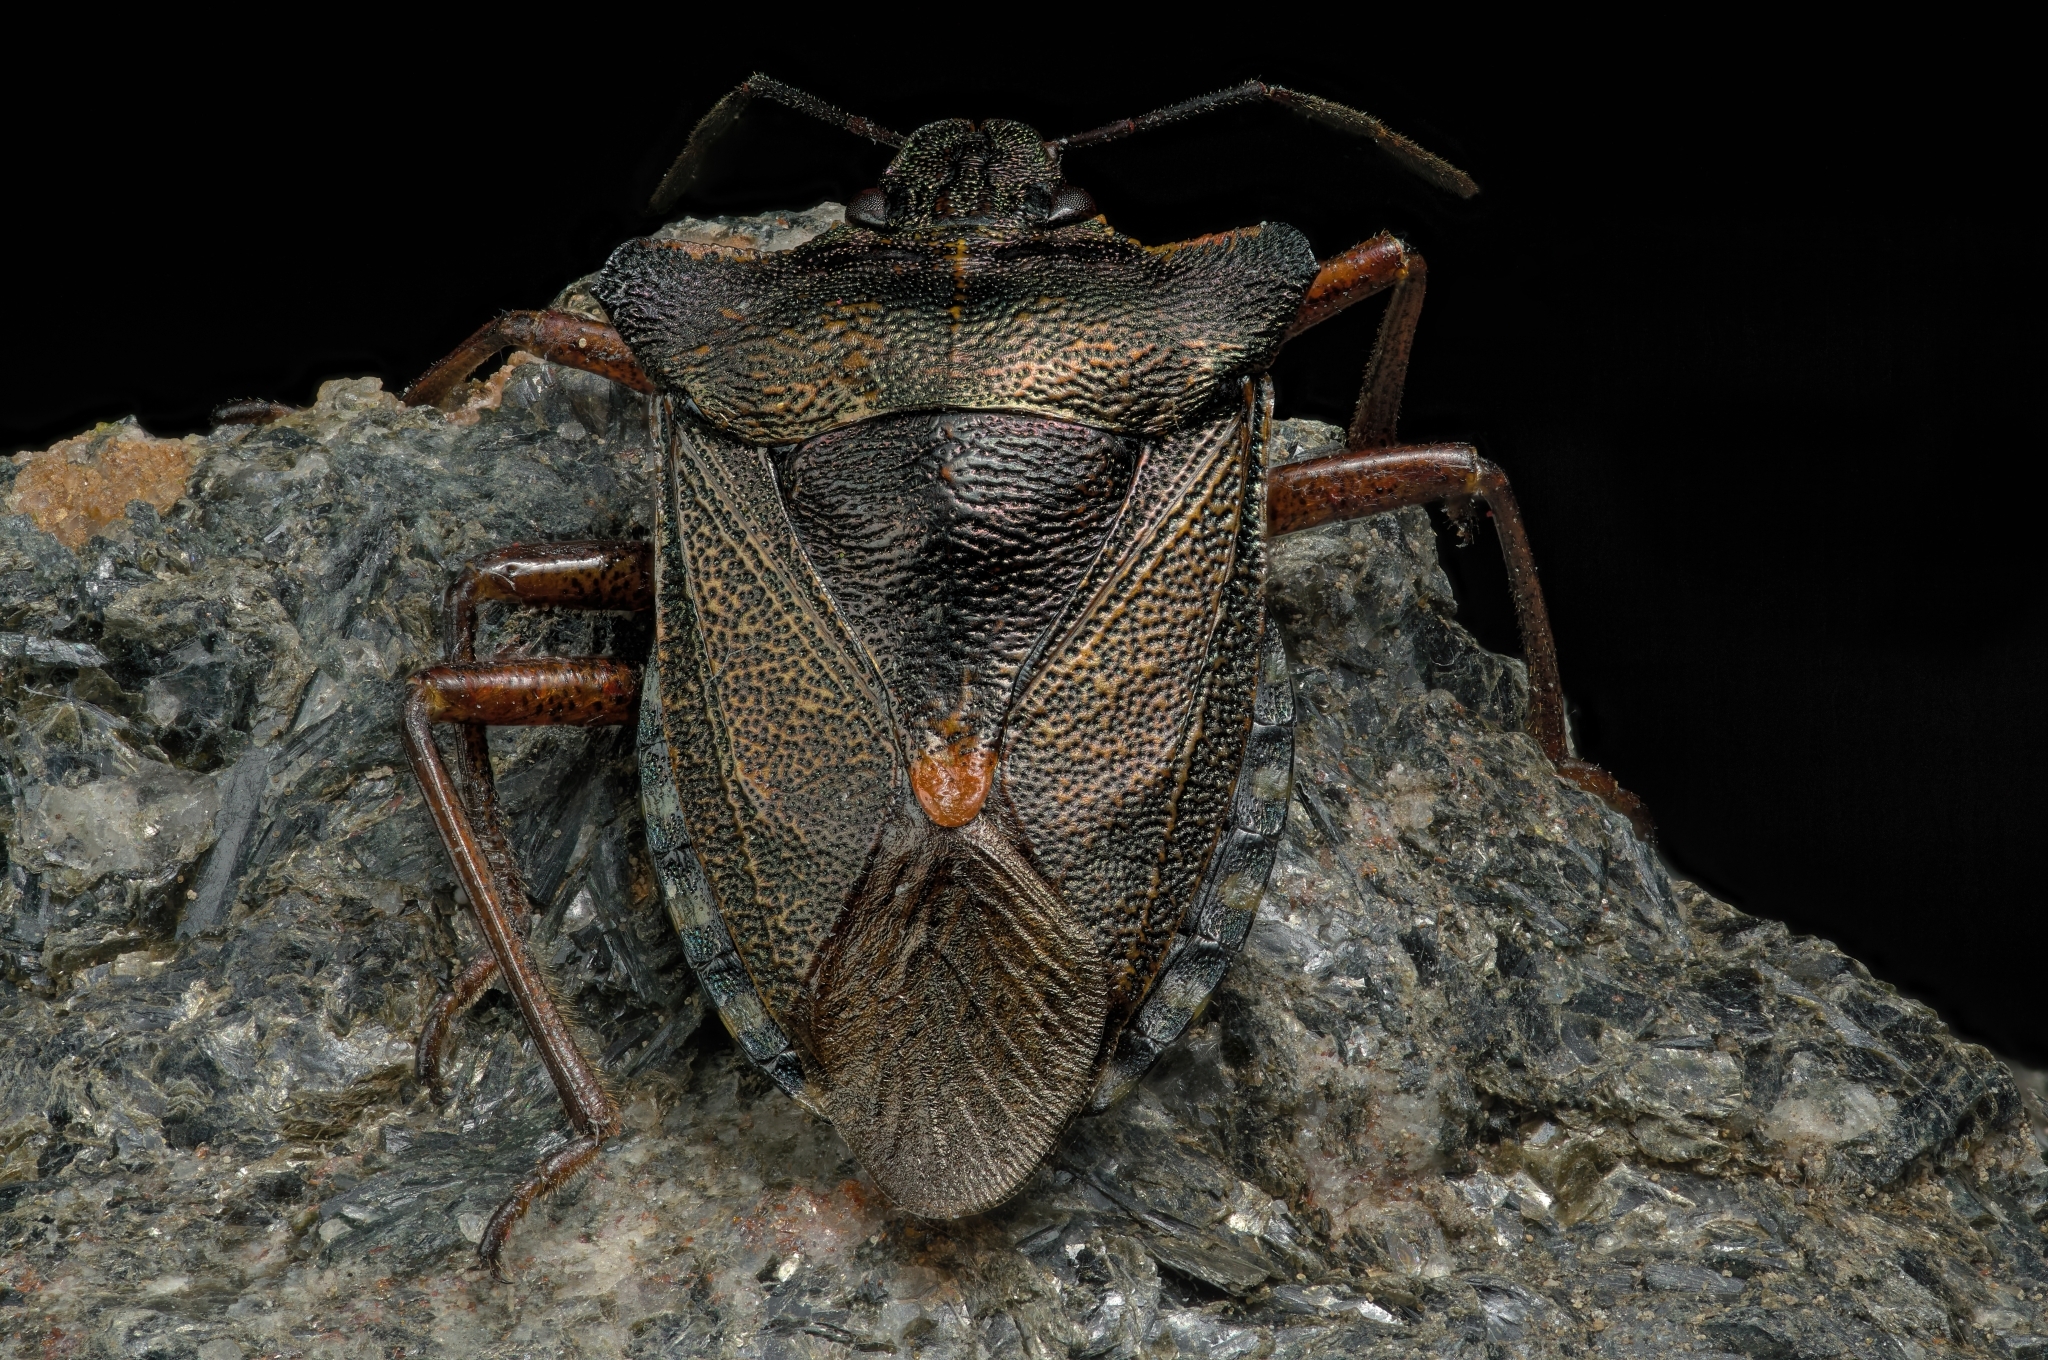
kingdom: Animalia
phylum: Arthropoda
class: Insecta
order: Hemiptera
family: Pentatomidae
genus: Pentatoma
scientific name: Pentatoma rufipes
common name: Forest bug
